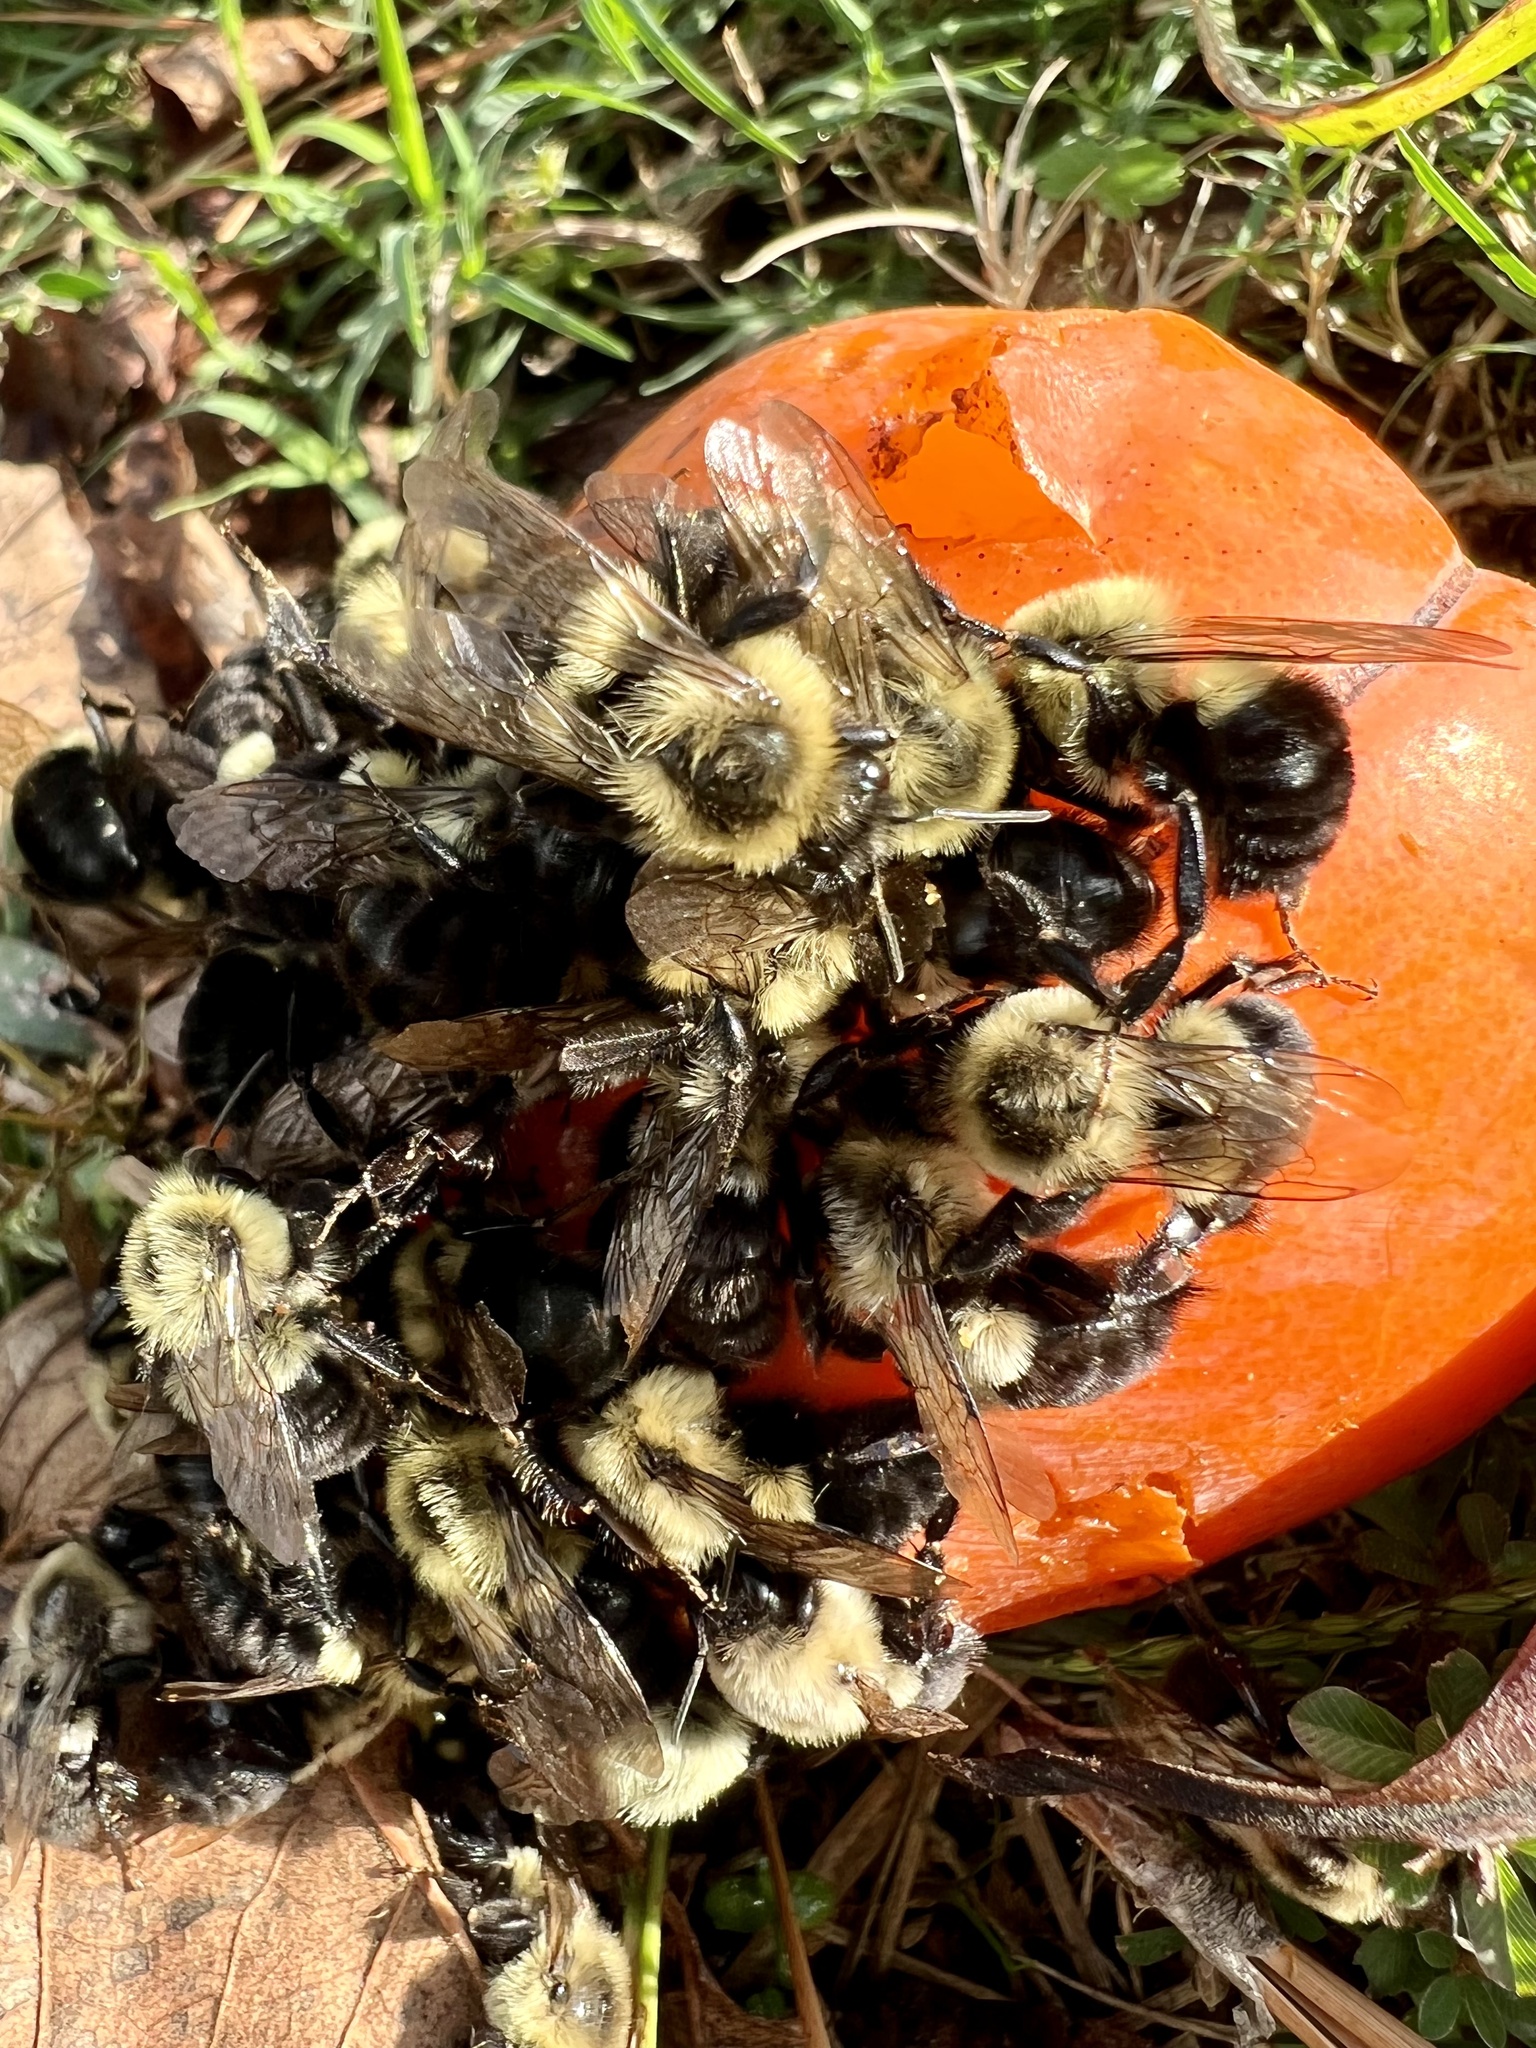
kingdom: Animalia
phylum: Arthropoda
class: Insecta
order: Hymenoptera
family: Apidae
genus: Bombus
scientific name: Bombus impatiens
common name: Common eastern bumble bee
